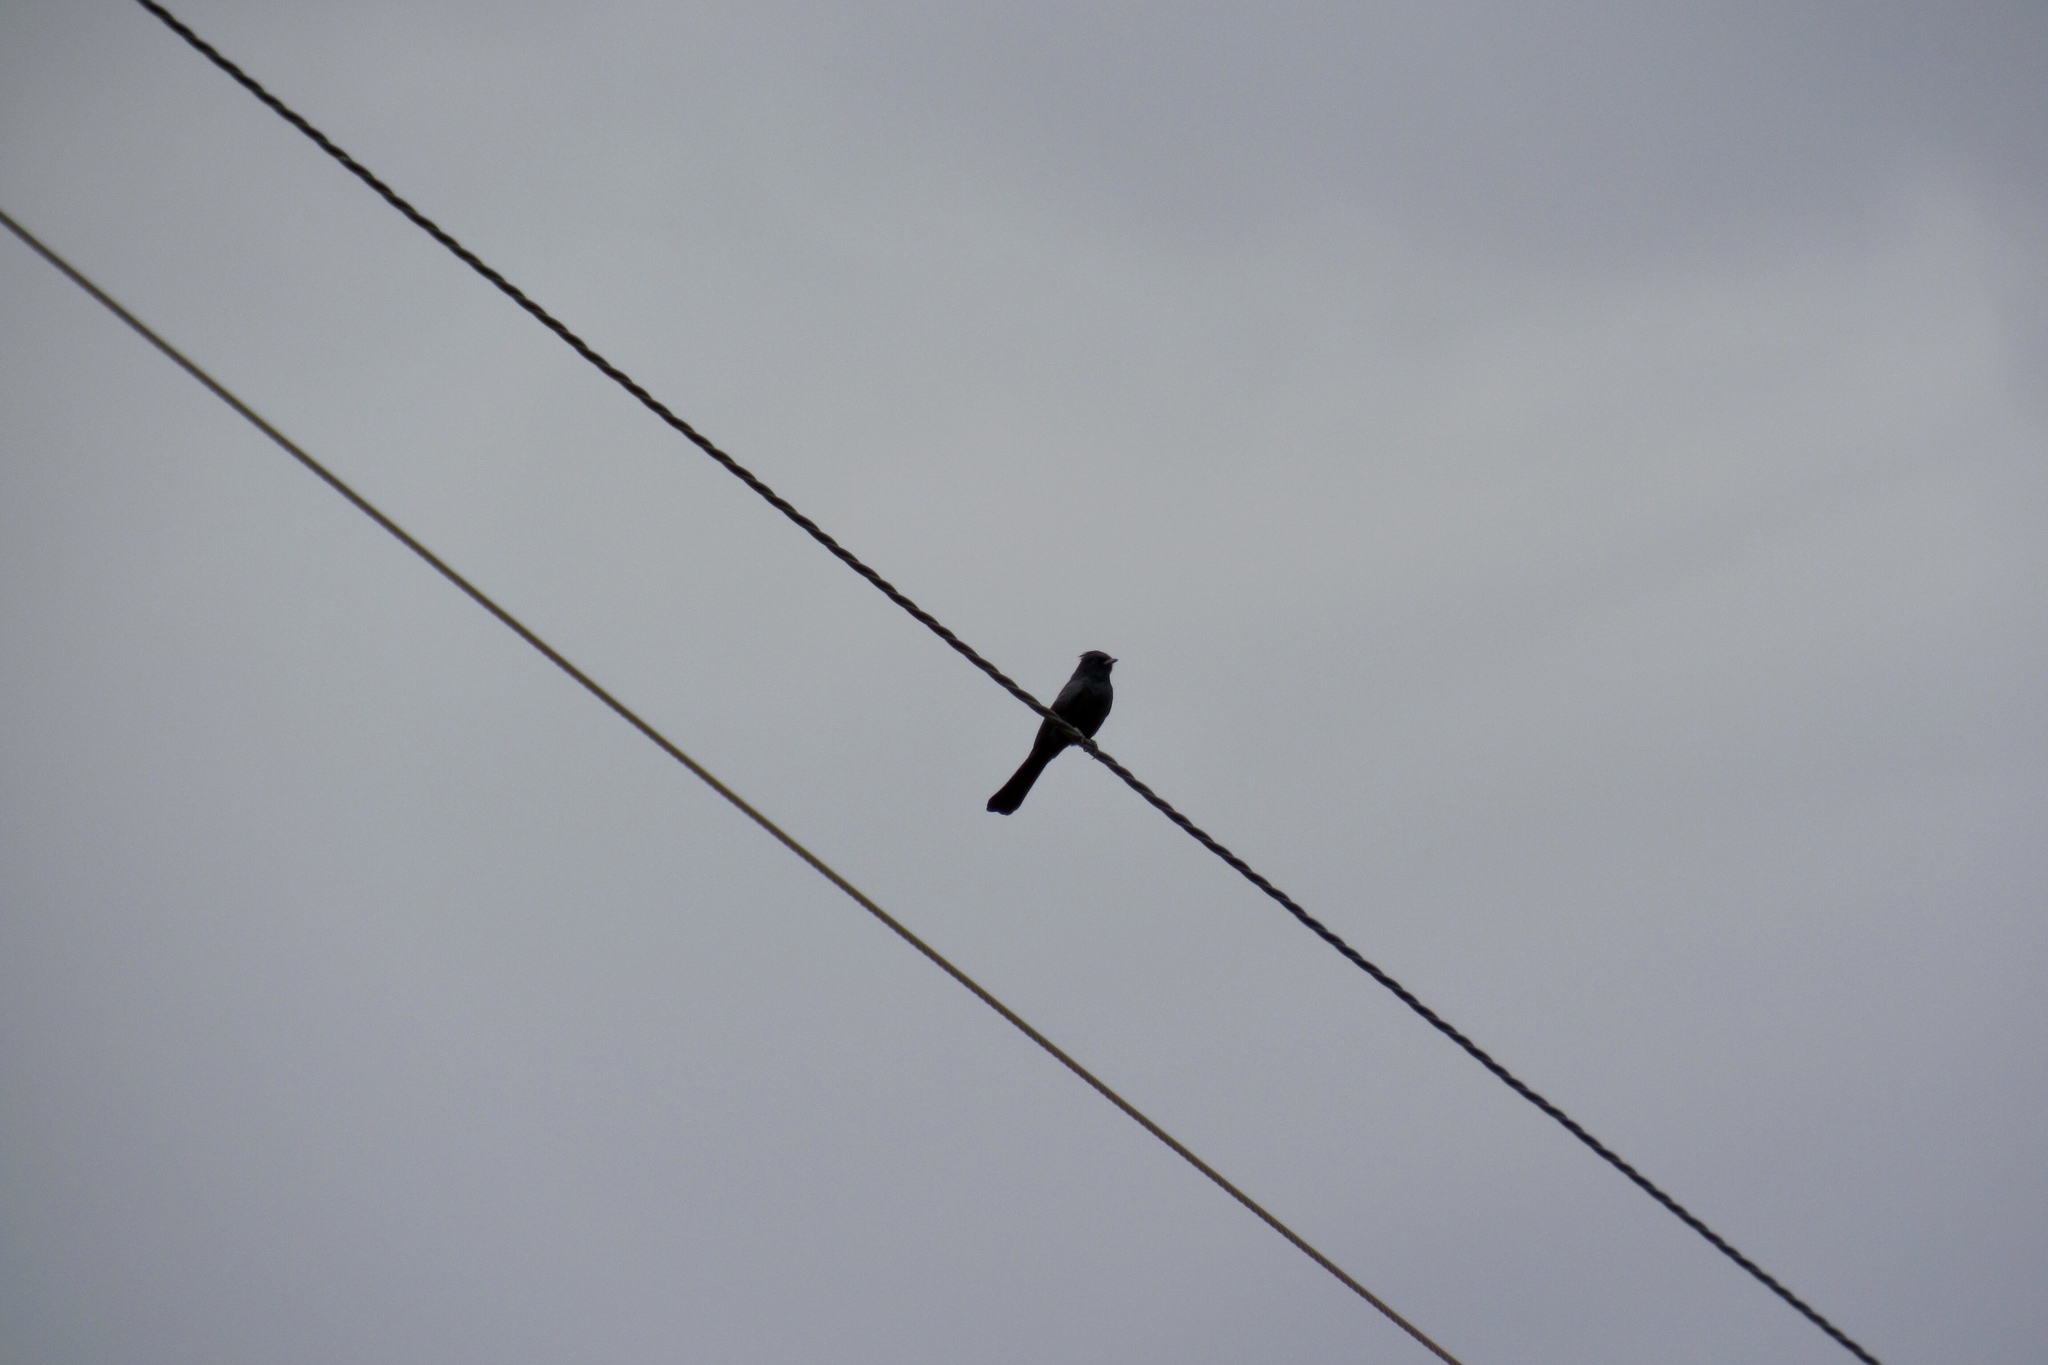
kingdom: Animalia
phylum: Chordata
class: Aves
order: Passeriformes
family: Ptilogonatidae
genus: Phainopepla
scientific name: Phainopepla nitens
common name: Phainopepla
